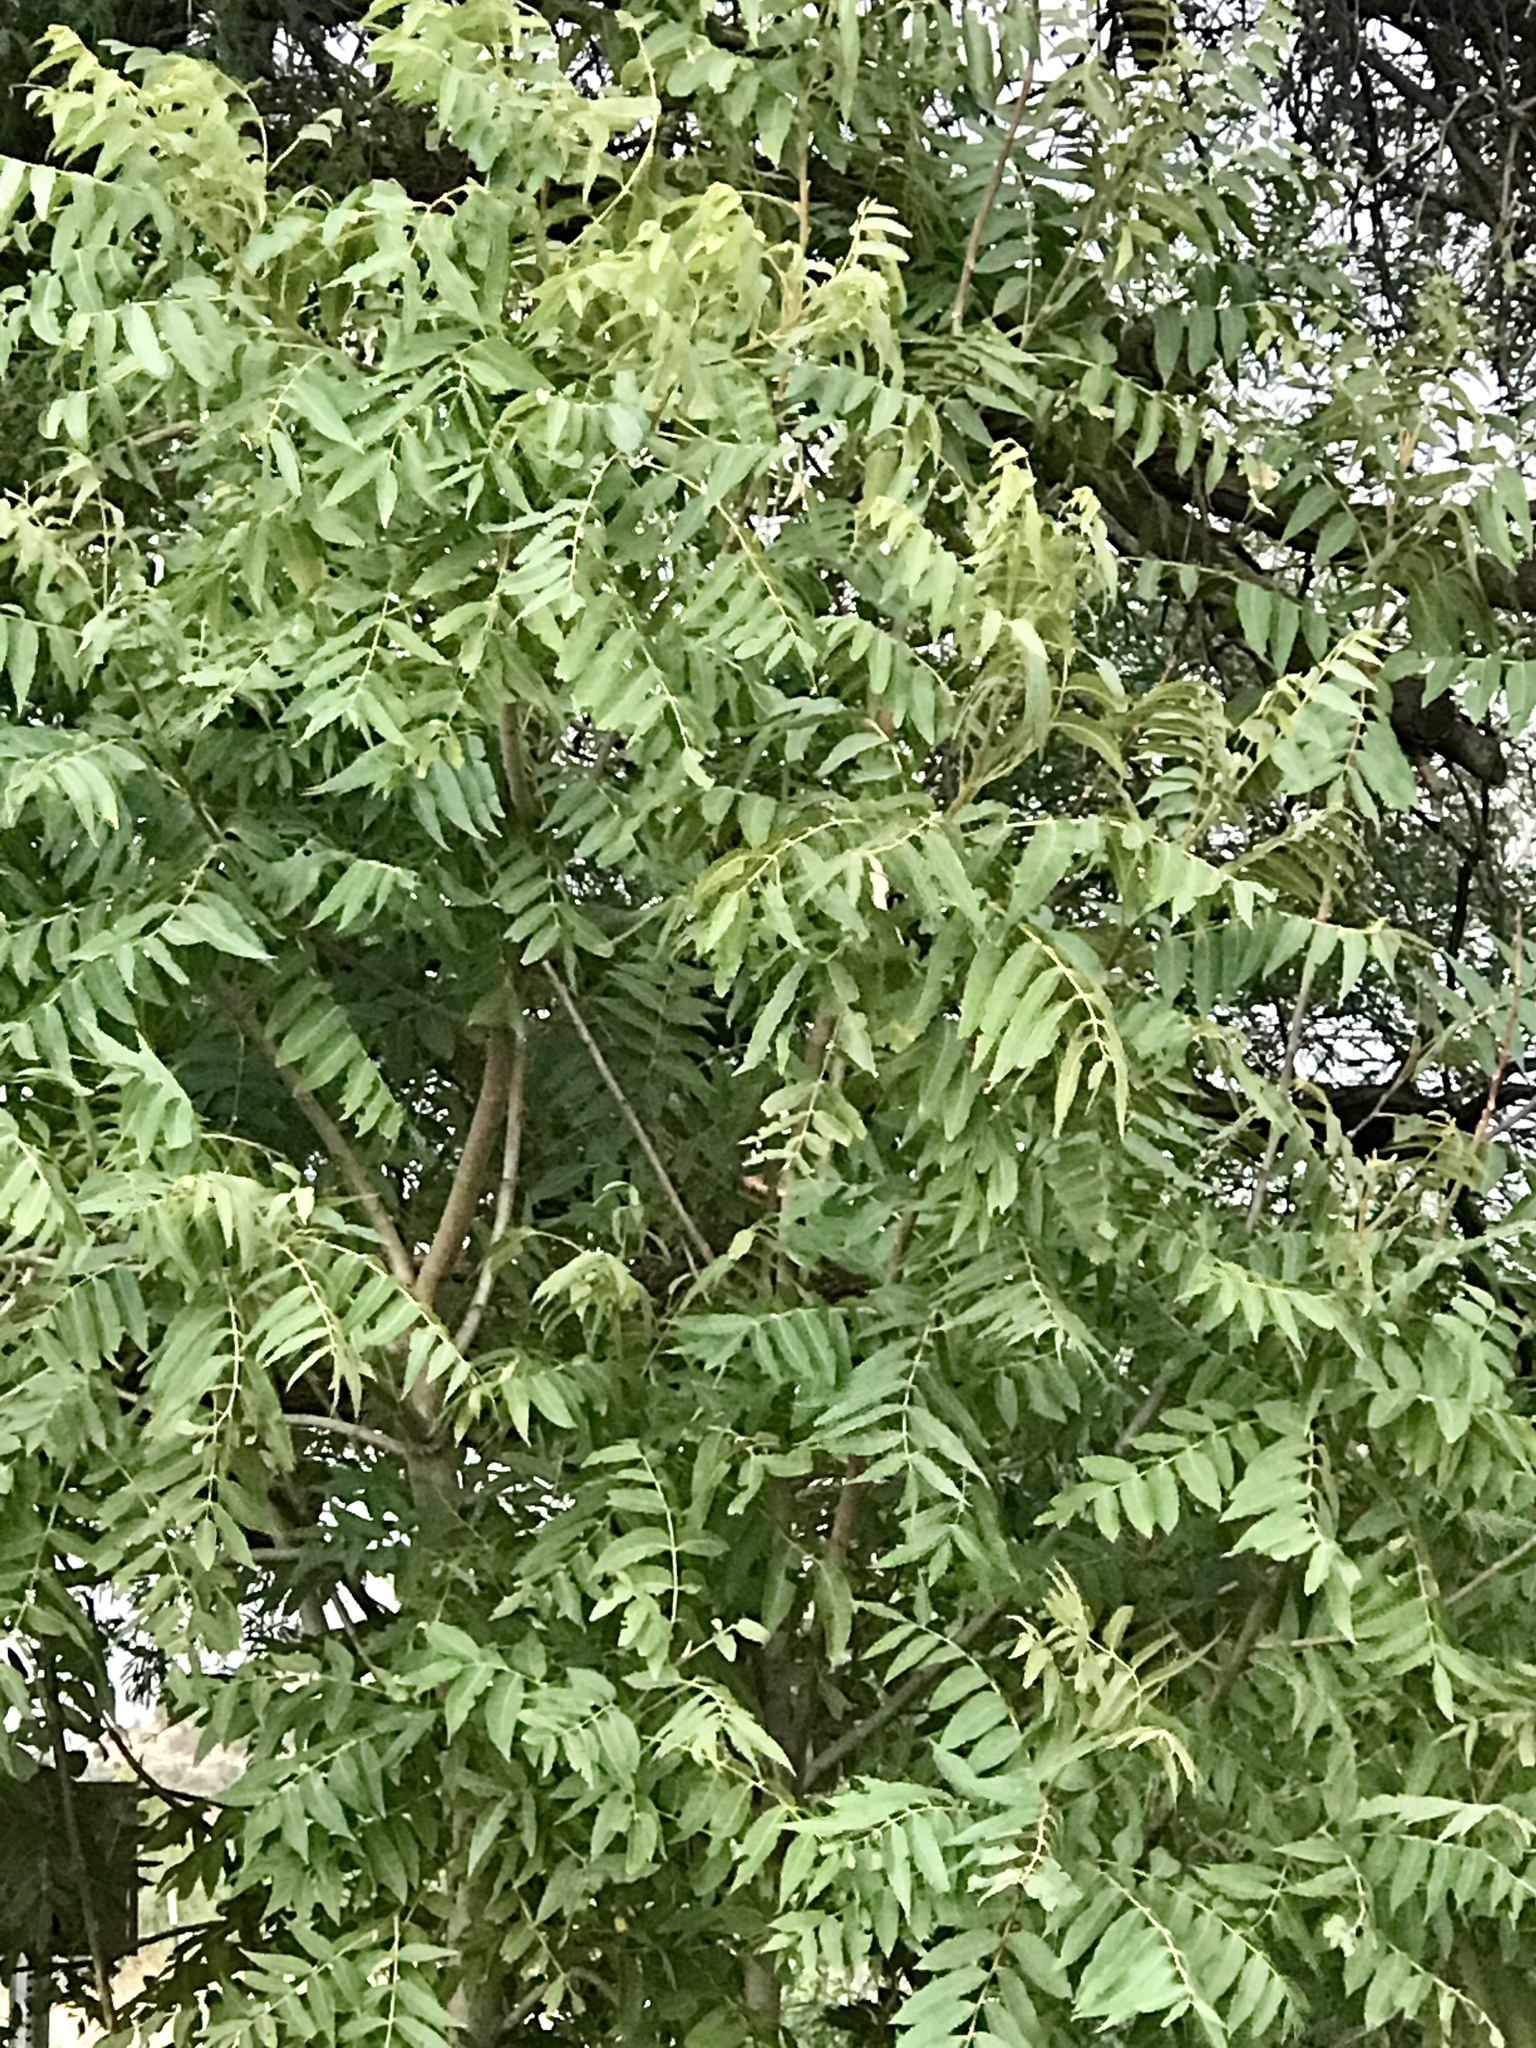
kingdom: Plantae
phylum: Tracheophyta
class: Magnoliopsida
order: Fagales
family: Juglandaceae
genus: Juglans
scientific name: Juglans major
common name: Arizona walnut
